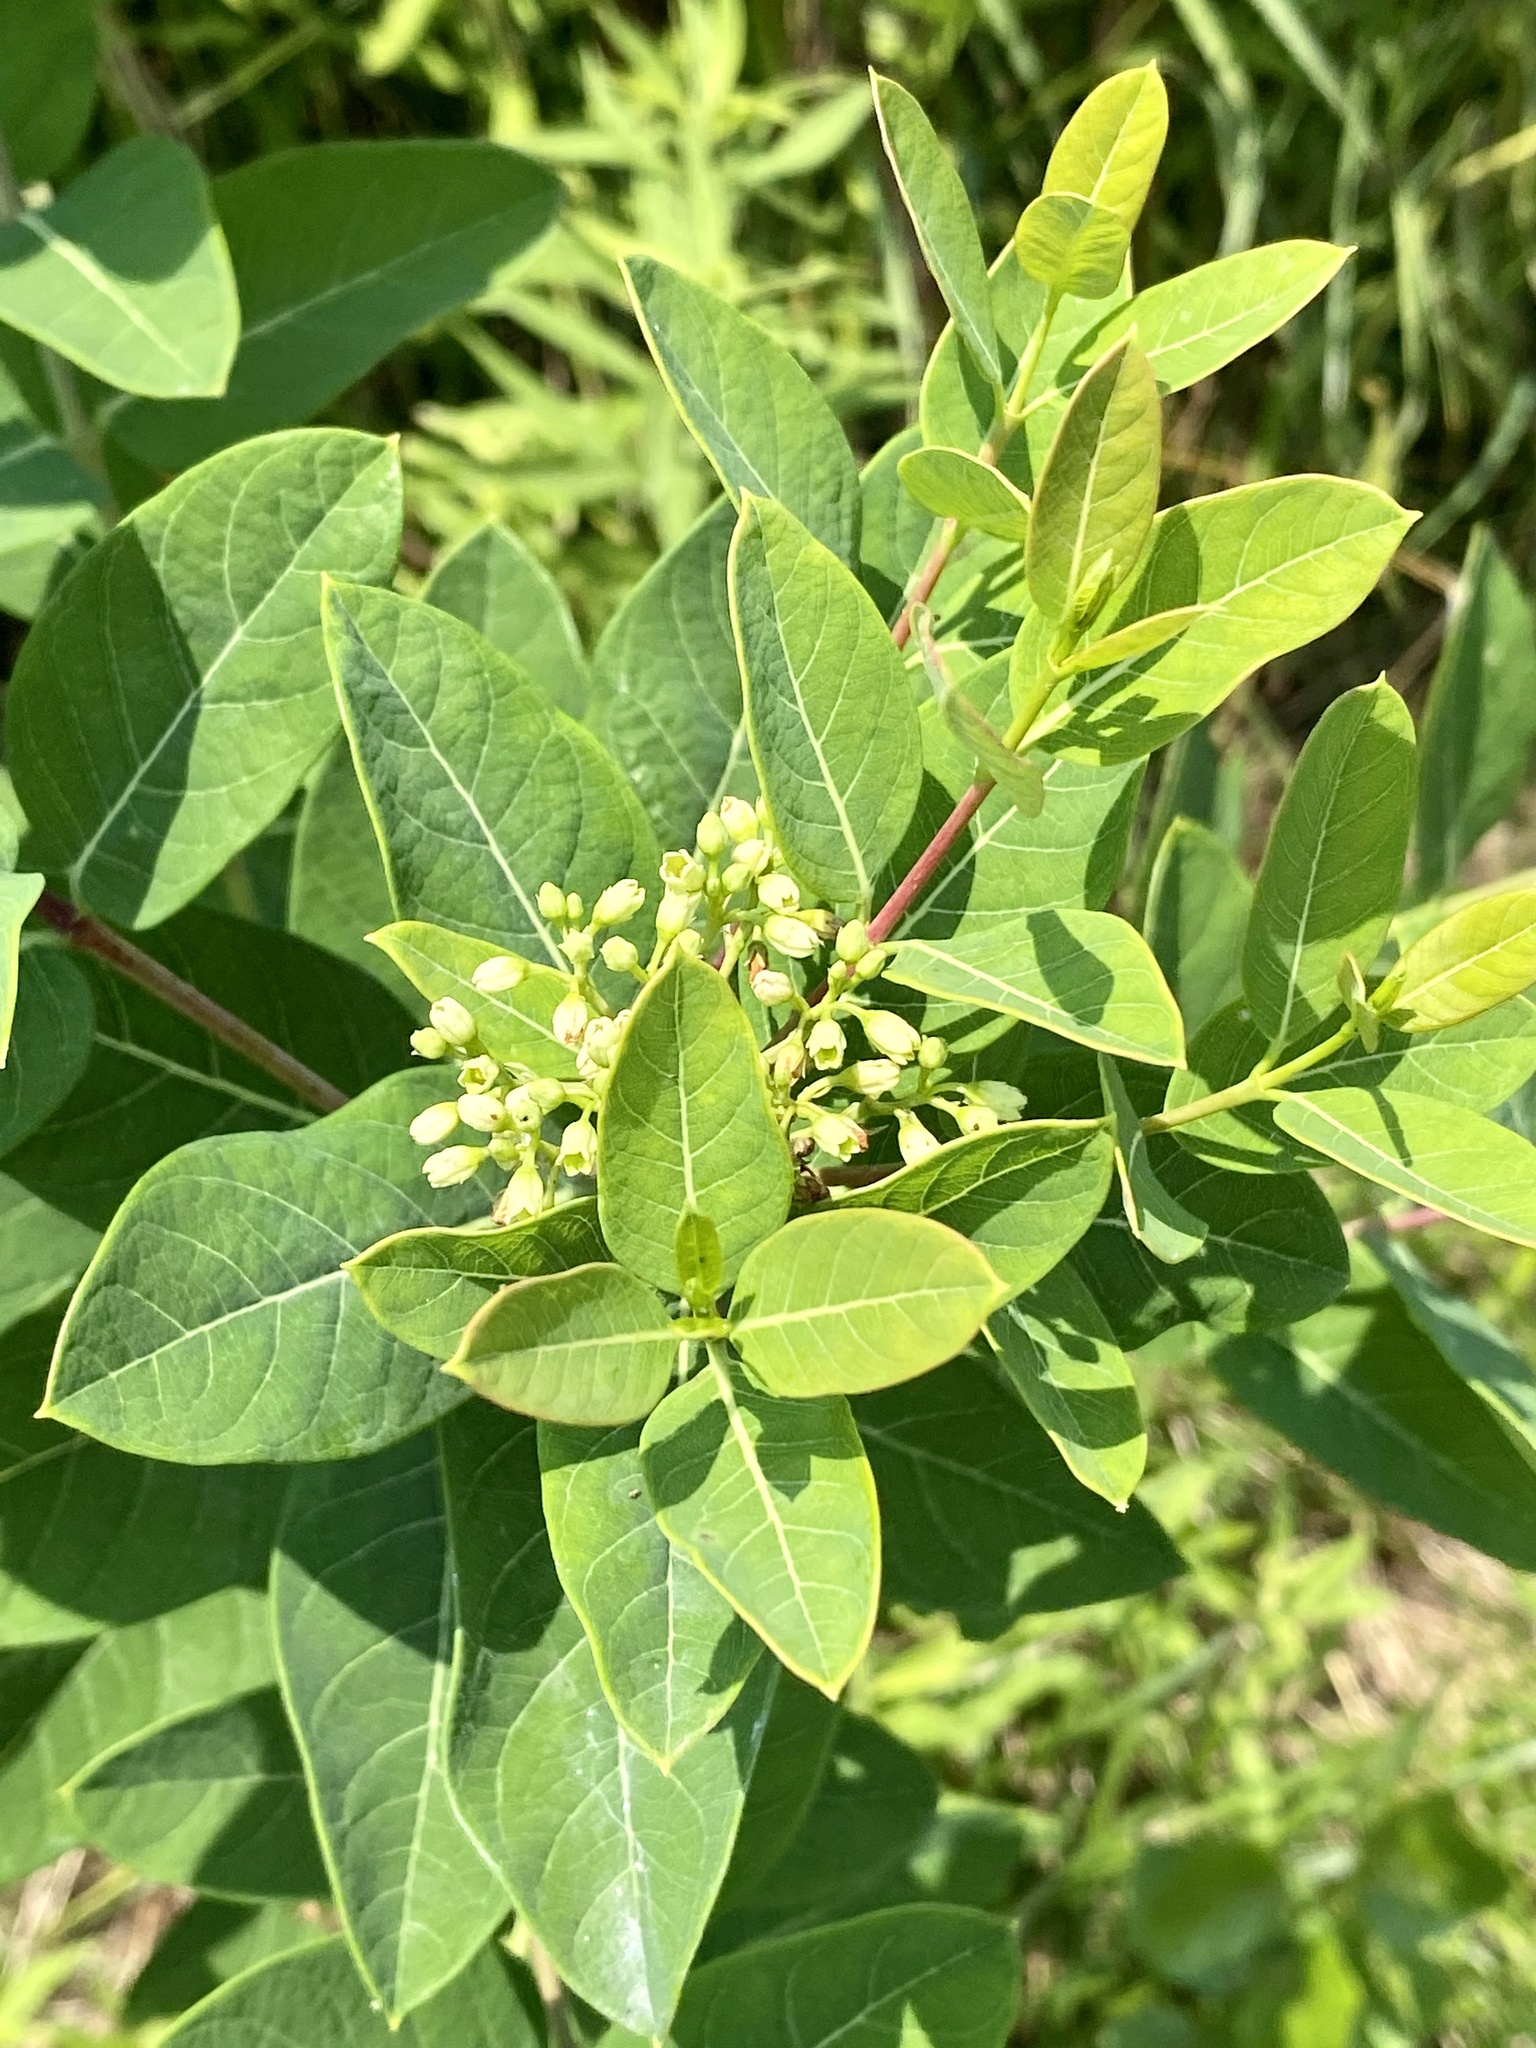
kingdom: Plantae
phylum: Tracheophyta
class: Magnoliopsida
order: Gentianales
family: Apocynaceae
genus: Apocynum
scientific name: Apocynum cannabinum
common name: Hemp dogbane
